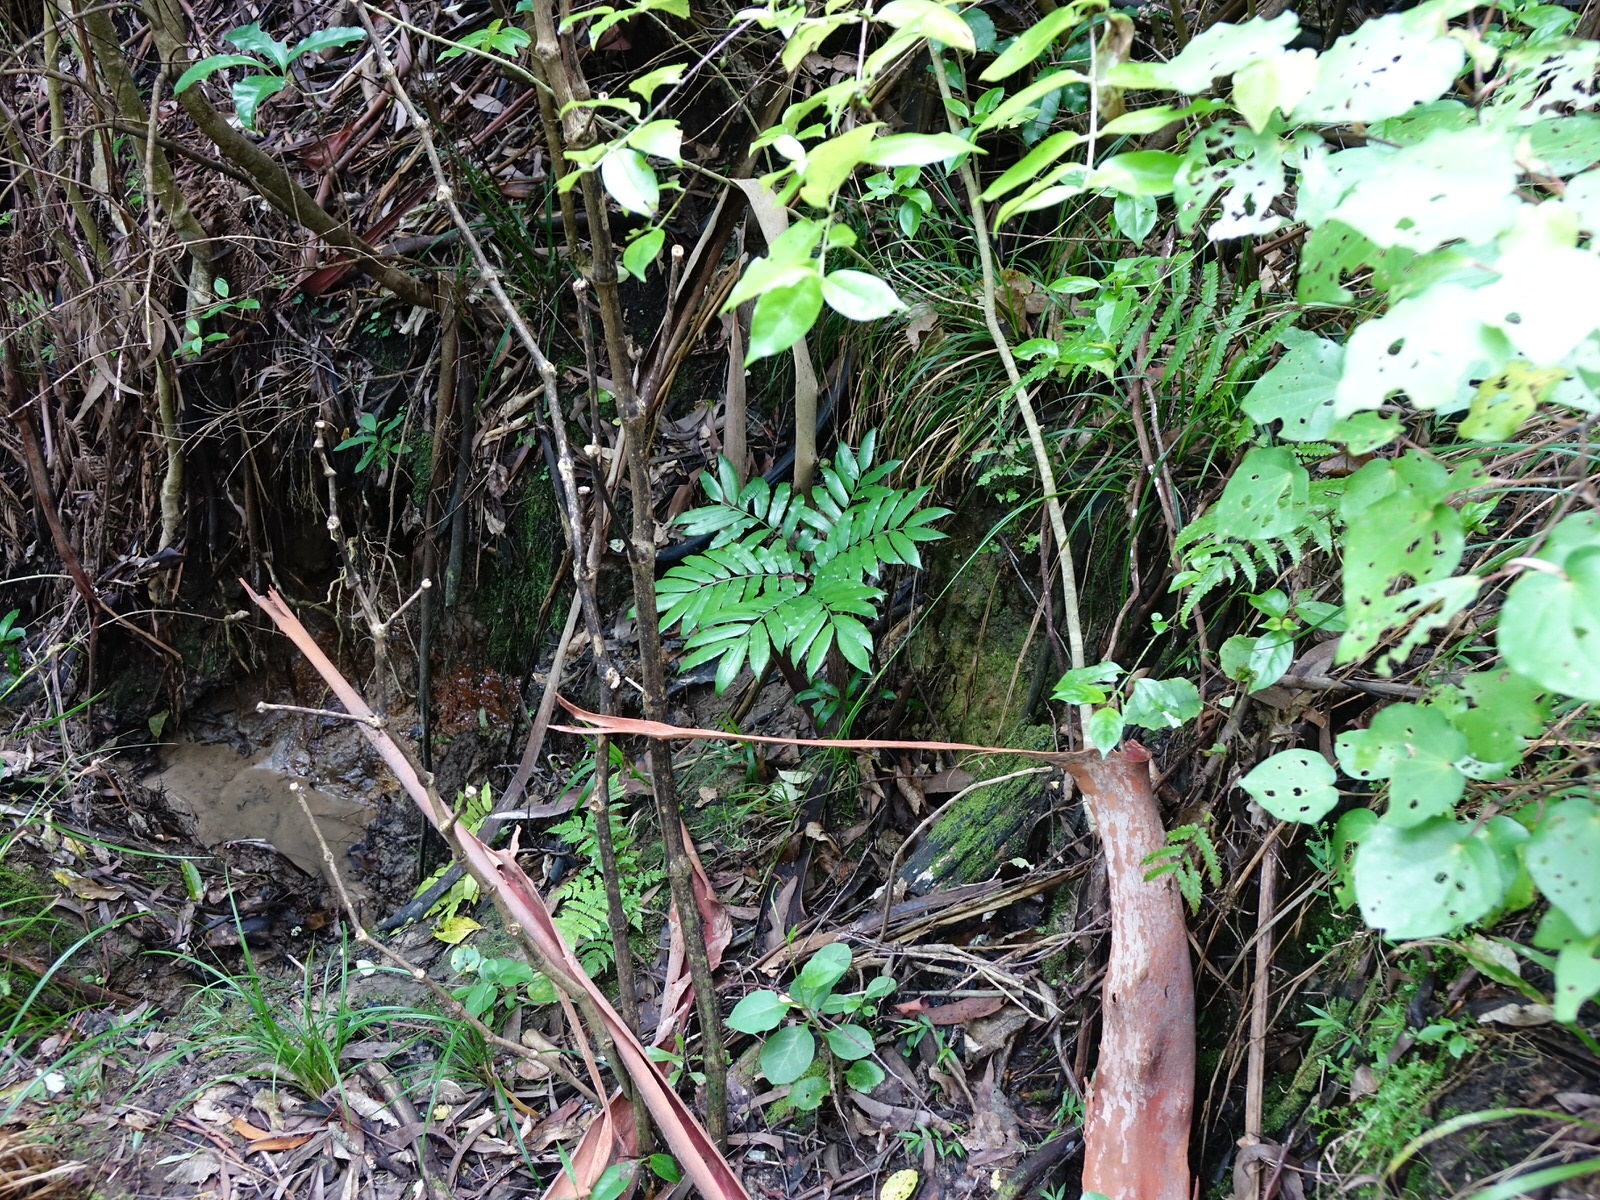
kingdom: Plantae
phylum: Tracheophyta
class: Polypodiopsida
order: Marattiales
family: Marattiaceae
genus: Ptisana
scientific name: Ptisana salicina
